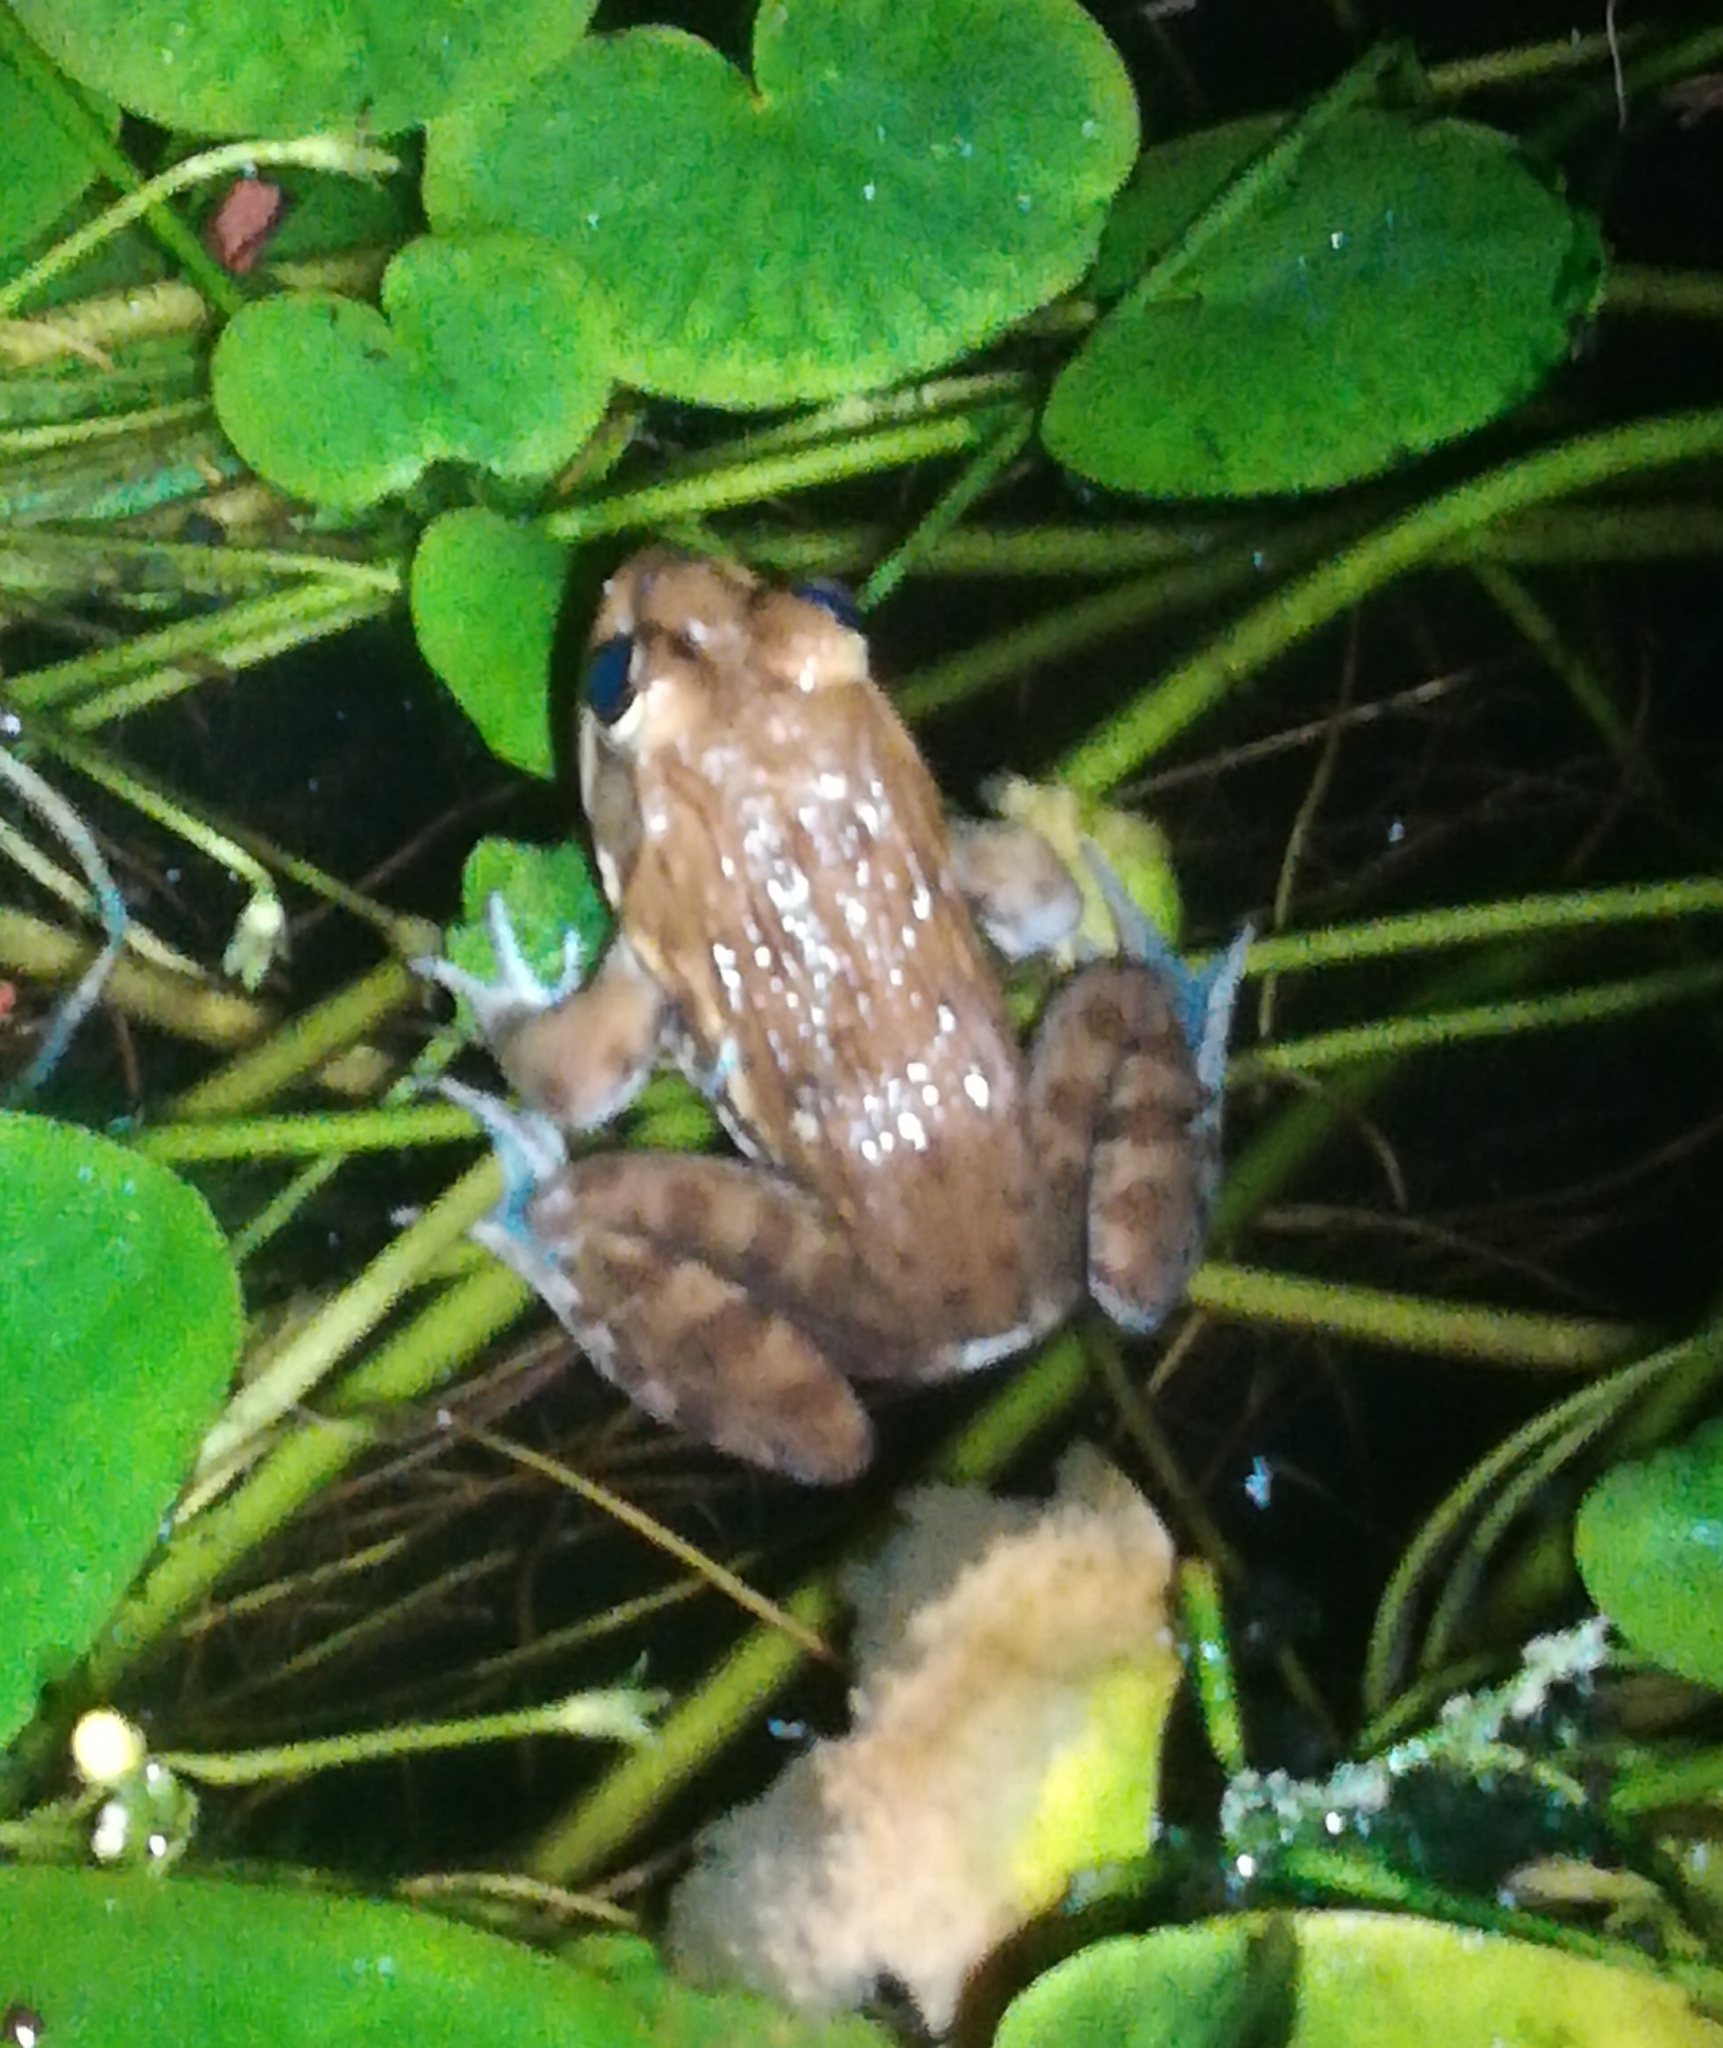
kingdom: Animalia
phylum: Chordata
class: Amphibia
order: Anura
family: Pyxicephalidae
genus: Amietia
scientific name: Amietia fuscigula
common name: Cape rana
